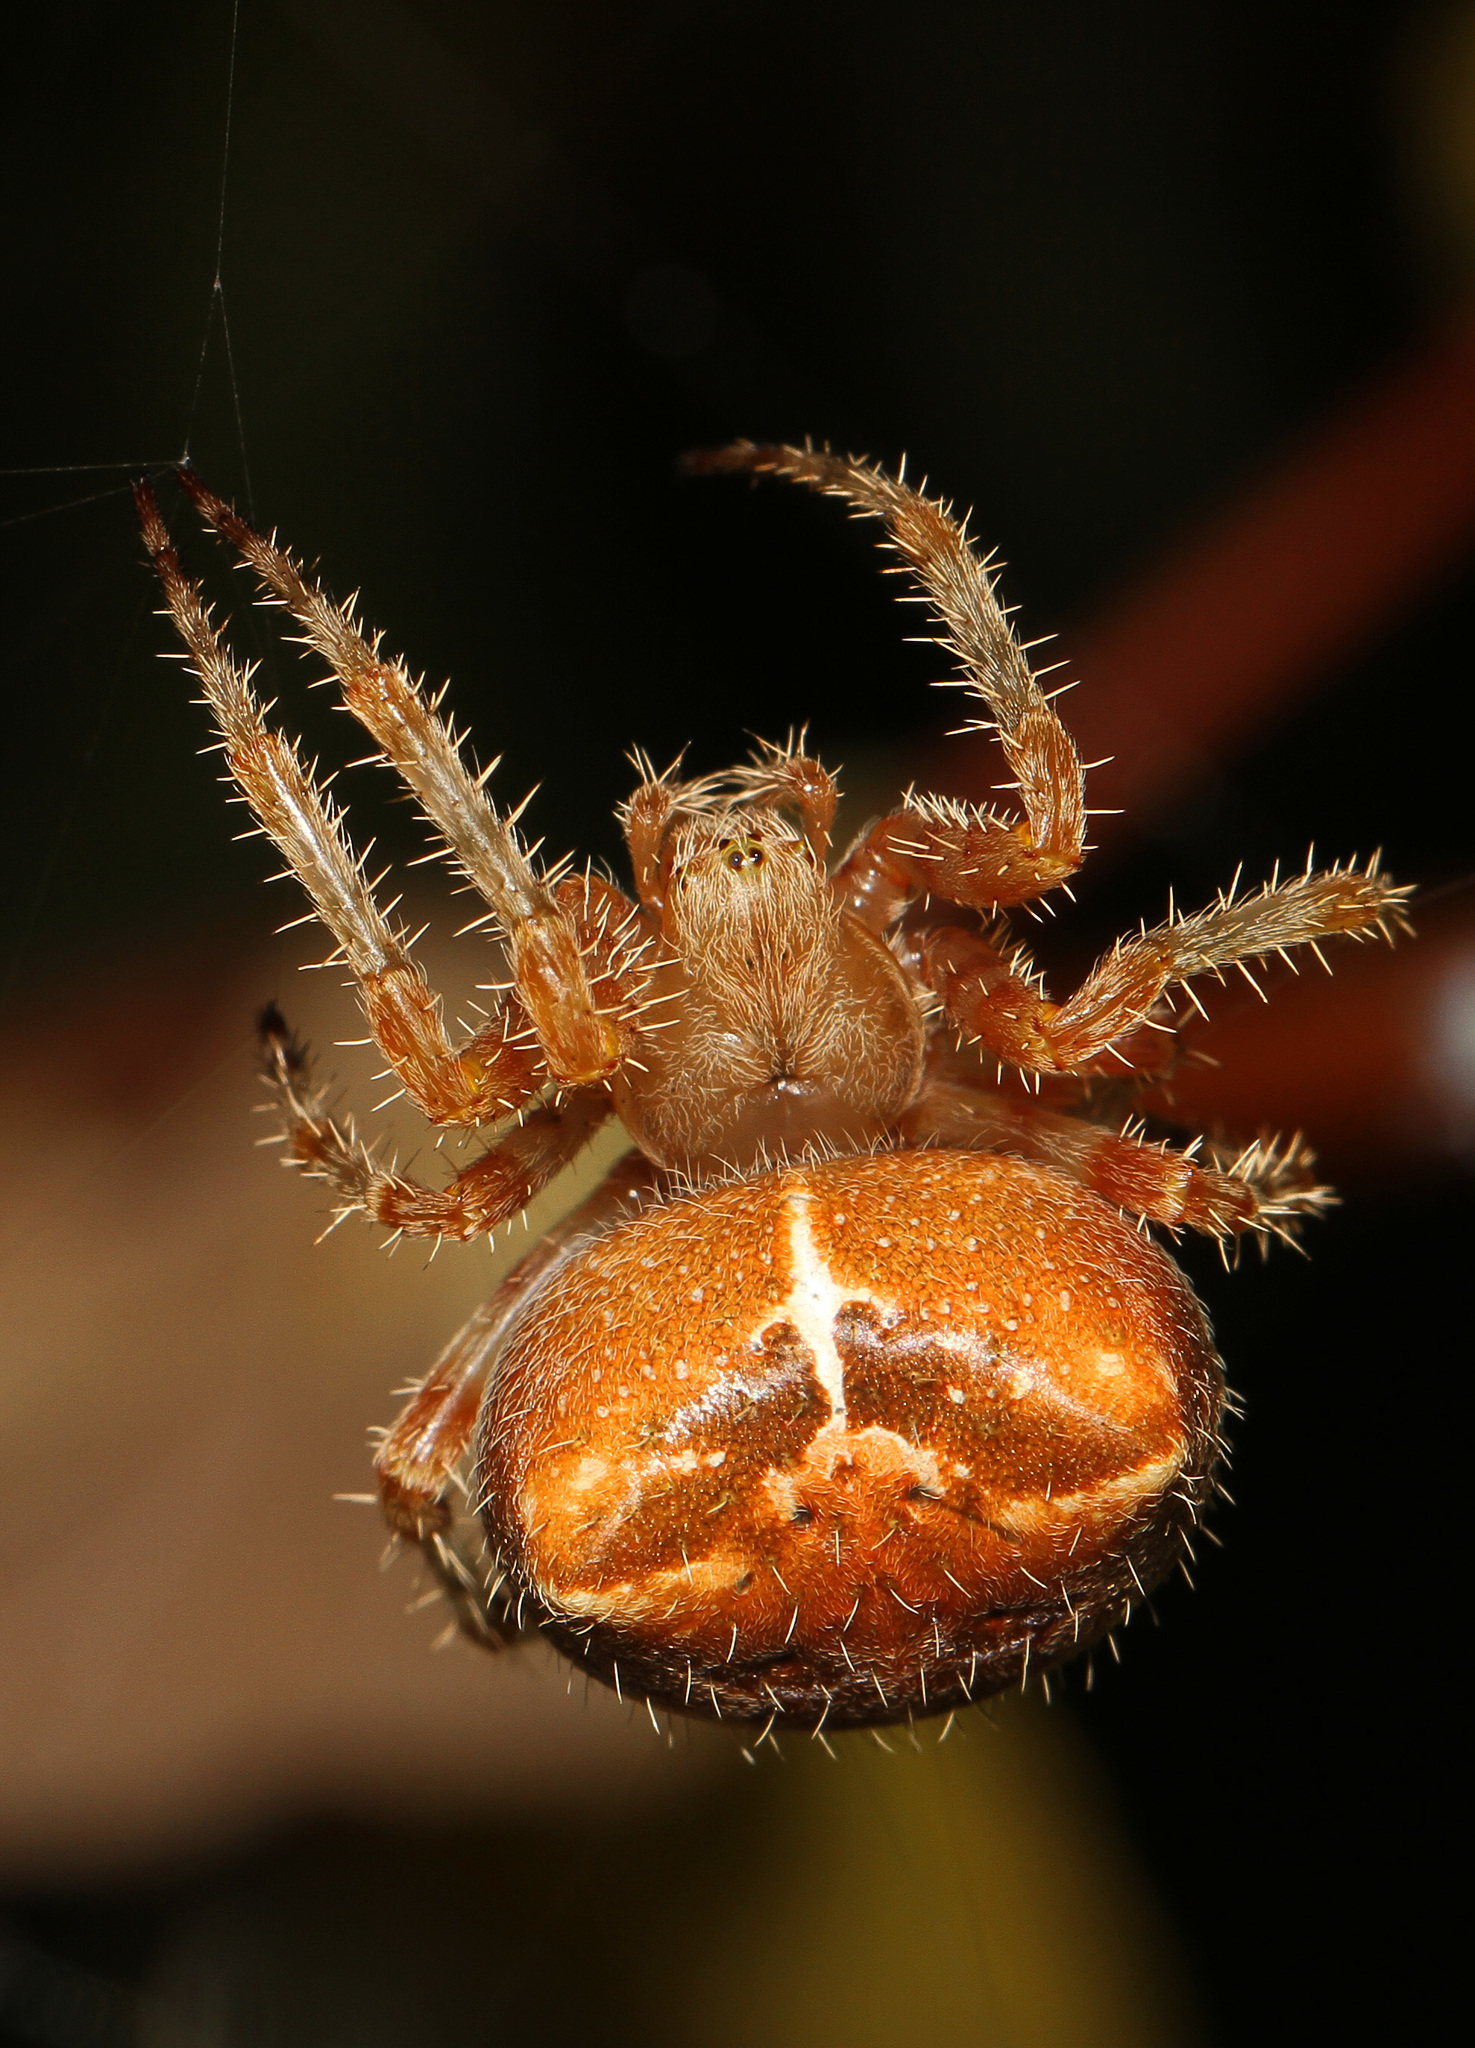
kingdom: Animalia
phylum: Arthropoda
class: Arachnida
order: Araneae
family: Araneidae
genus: Araneus
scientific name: Araneus gemmoides
